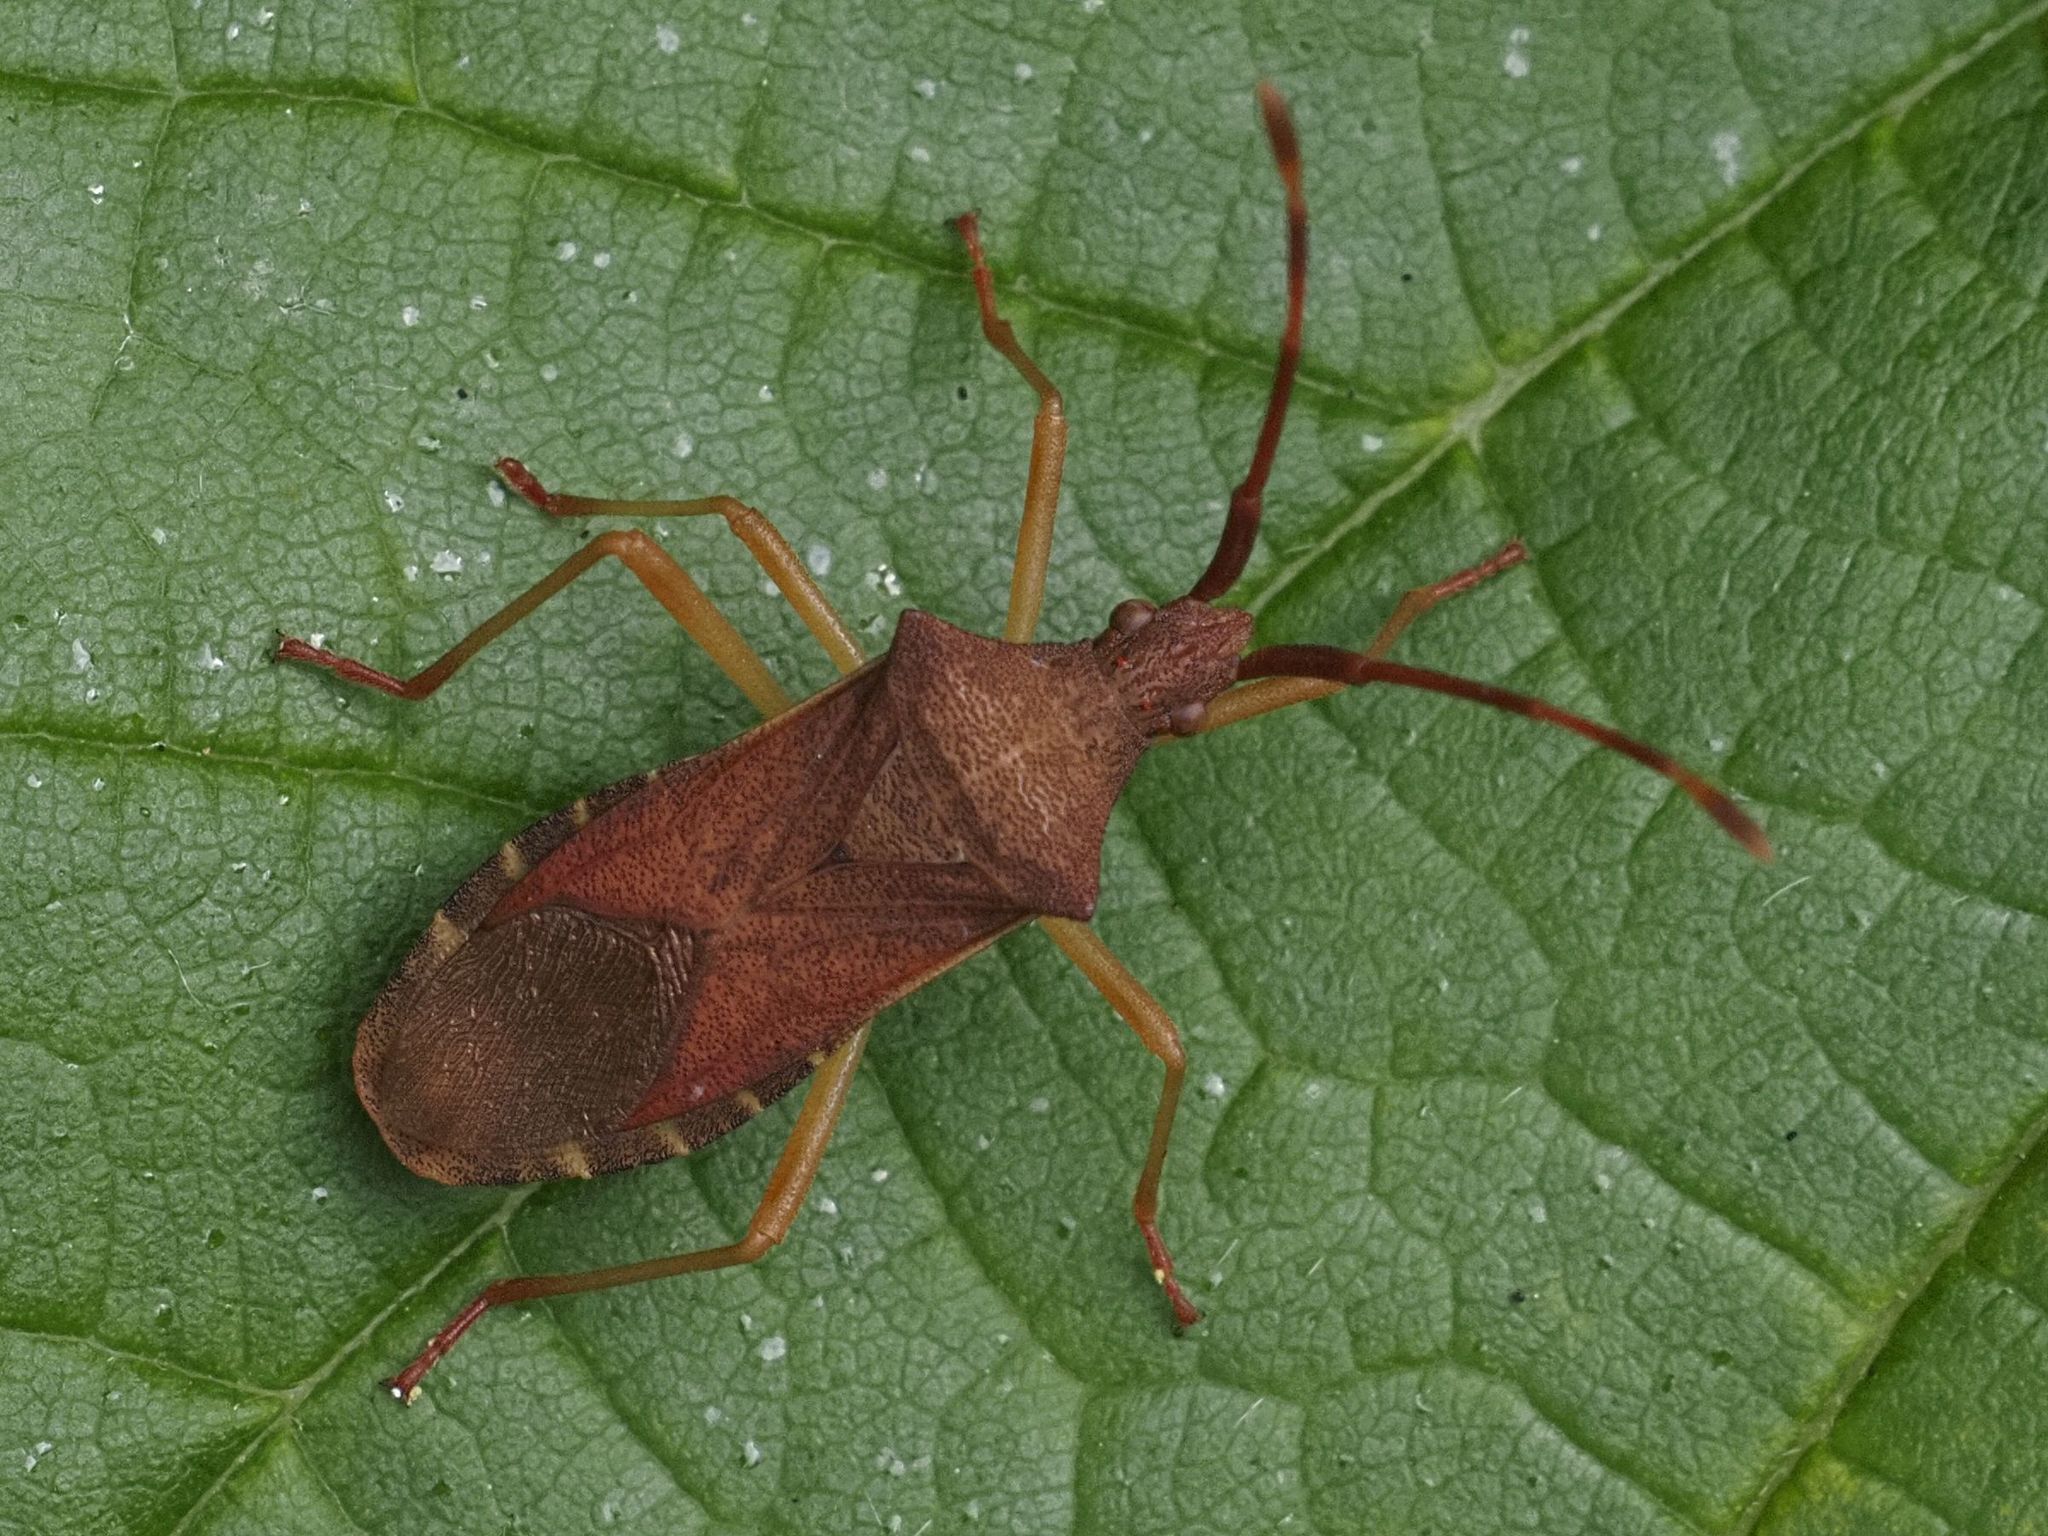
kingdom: Animalia
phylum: Arthropoda
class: Insecta
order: Hemiptera
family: Coreidae
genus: Gonocerus
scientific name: Gonocerus acuteangulatus
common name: Box bug
